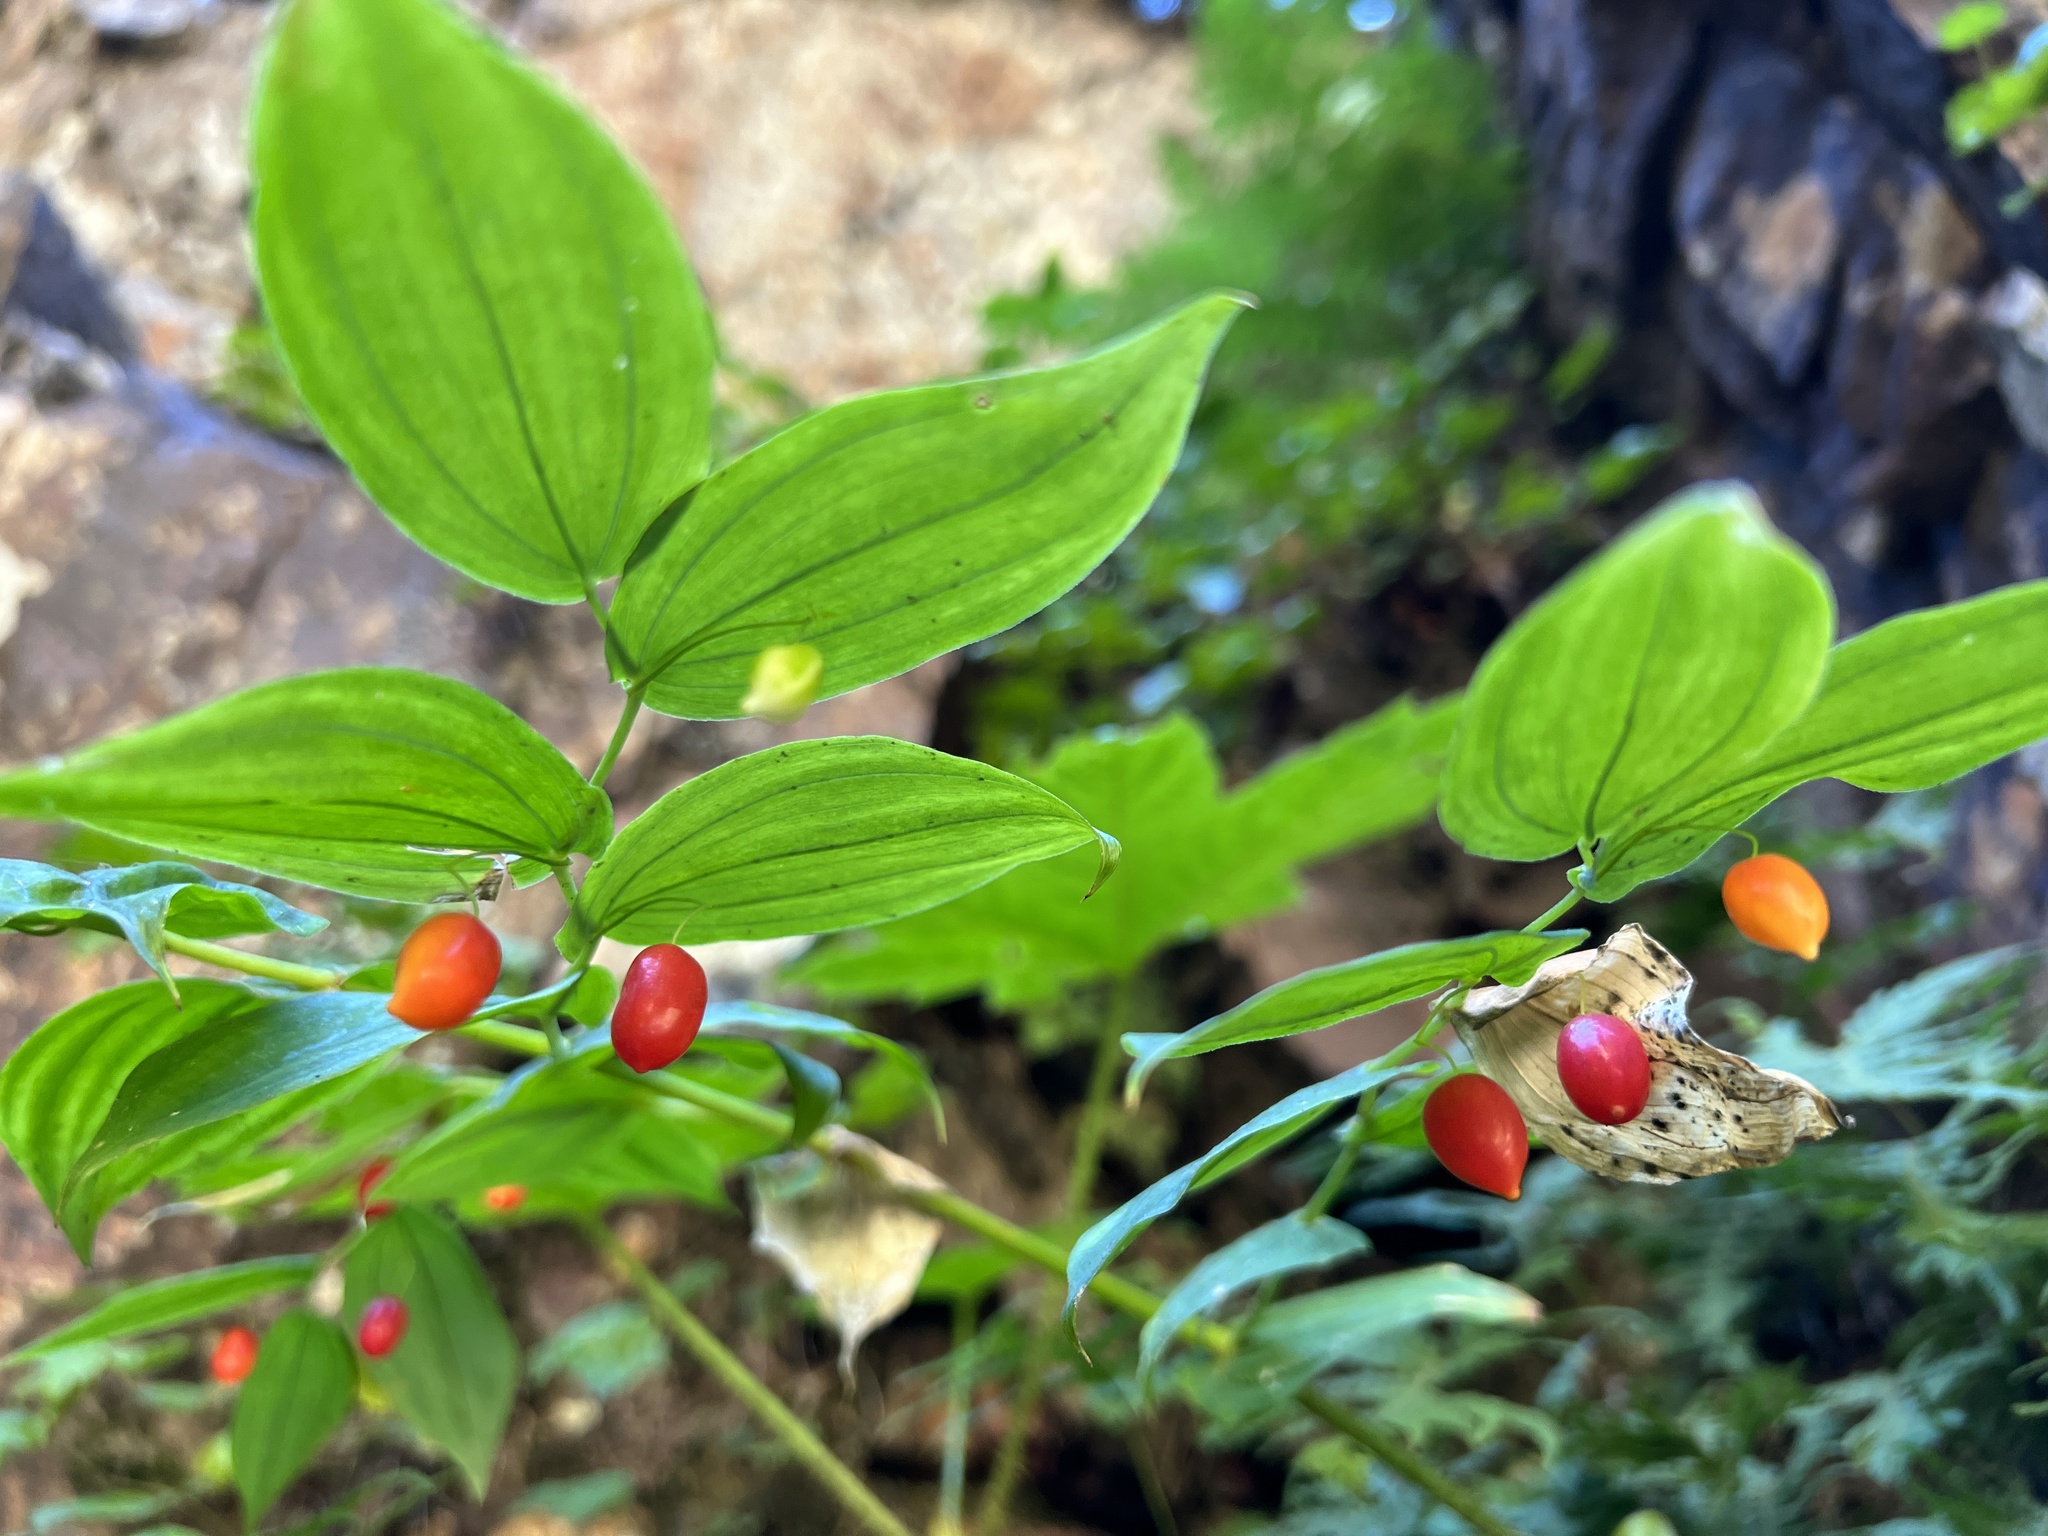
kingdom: Plantae
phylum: Tracheophyta
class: Liliopsida
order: Liliales
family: Liliaceae
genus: Streptopus
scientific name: Streptopus amplexifolius
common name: Clasp twisted stalk
